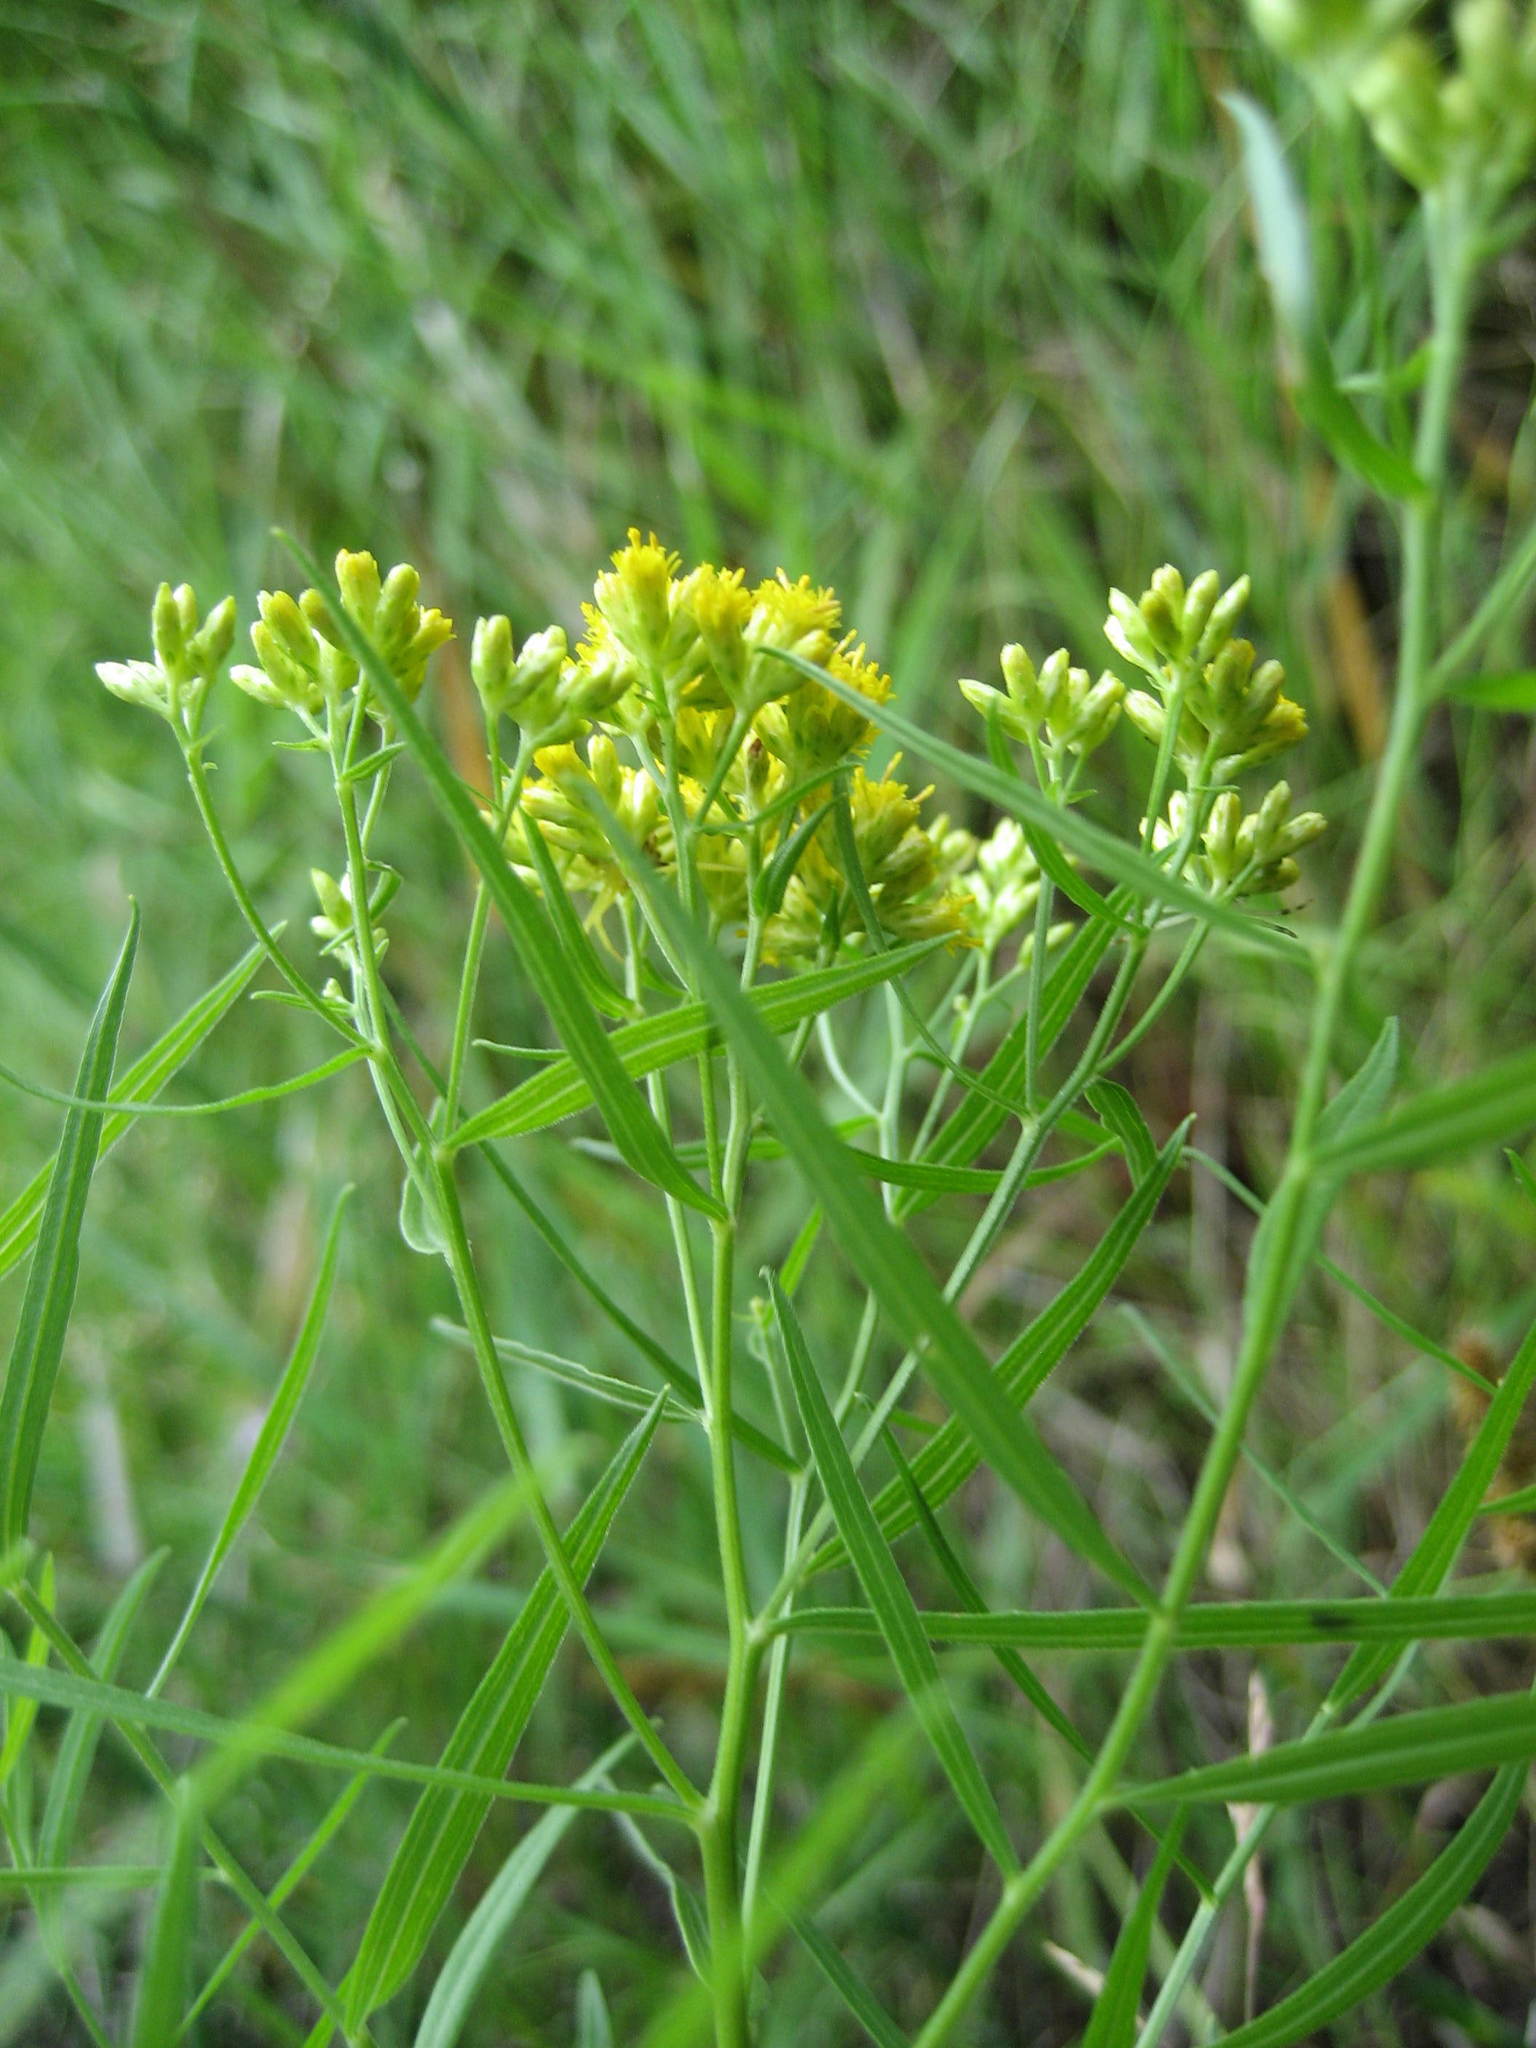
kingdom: Plantae
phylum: Tracheophyta
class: Magnoliopsida
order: Asterales
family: Asteraceae
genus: Euthamia
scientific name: Euthamia graminifolia
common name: Common goldentop
